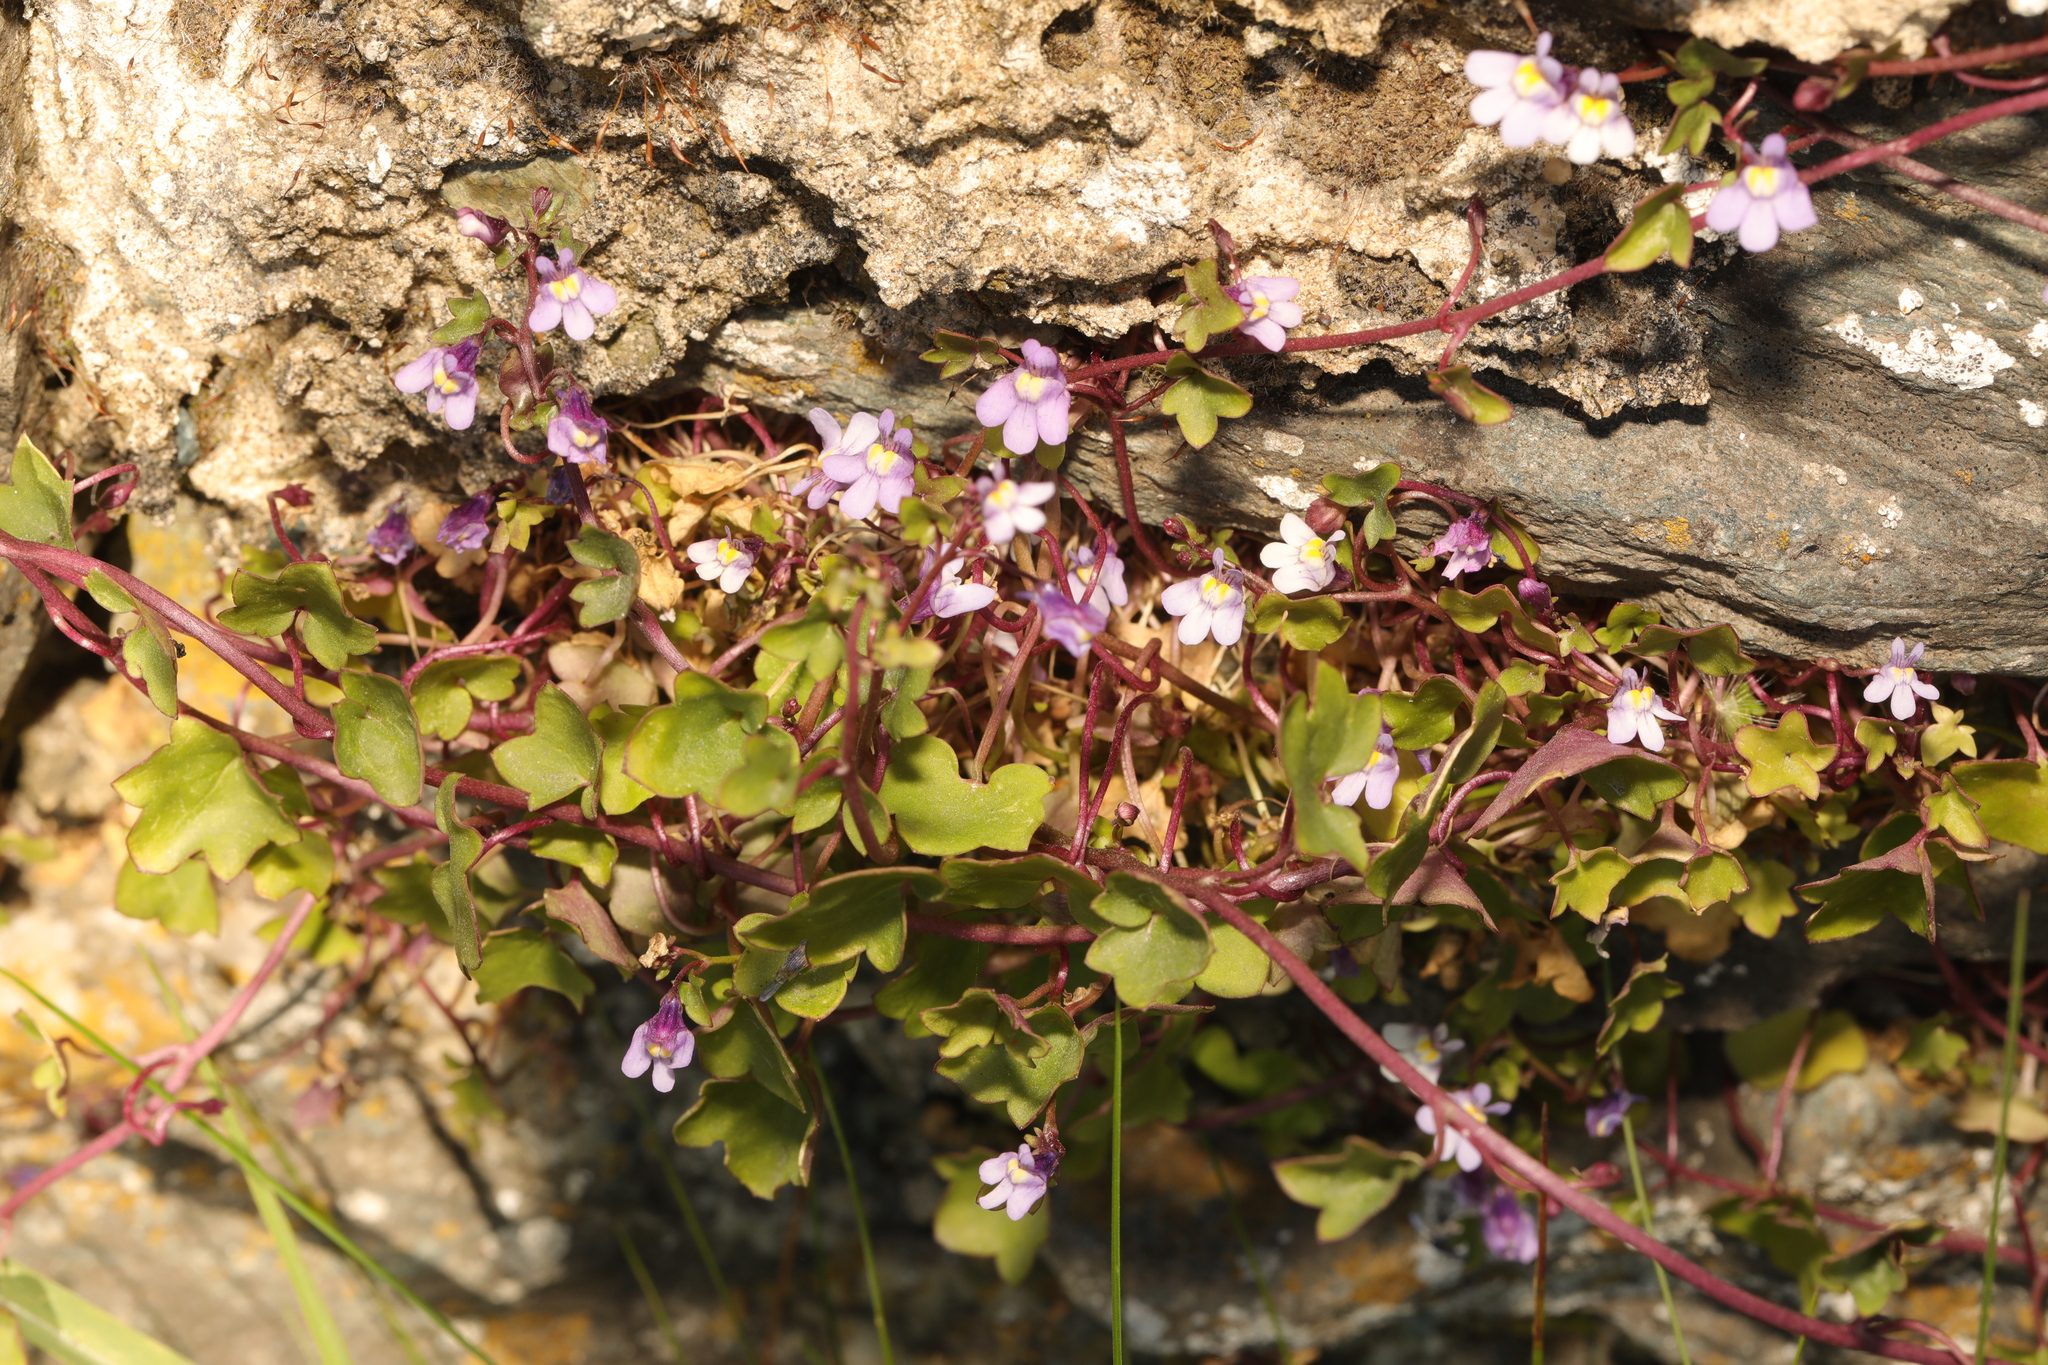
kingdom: Plantae
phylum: Tracheophyta
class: Magnoliopsida
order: Lamiales
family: Plantaginaceae
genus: Cymbalaria
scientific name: Cymbalaria muralis
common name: Ivy-leaved toadflax
